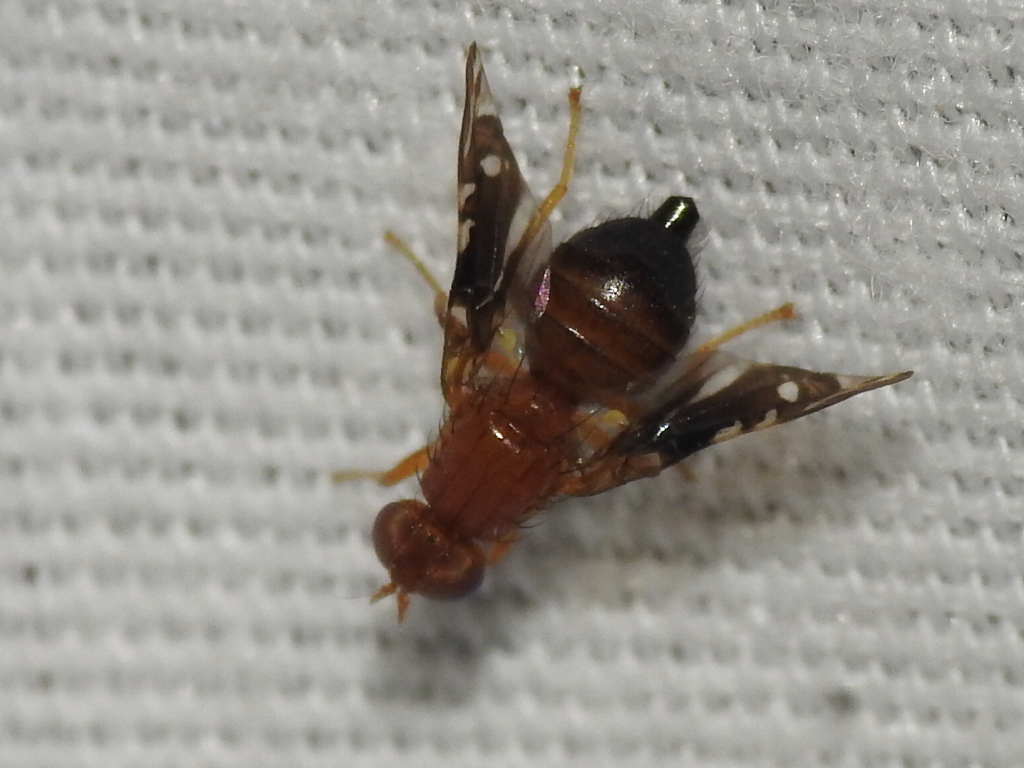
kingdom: Animalia
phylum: Arthropoda
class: Insecta
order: Diptera
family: Tephritidae
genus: Parastenopa
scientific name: Parastenopa limata
